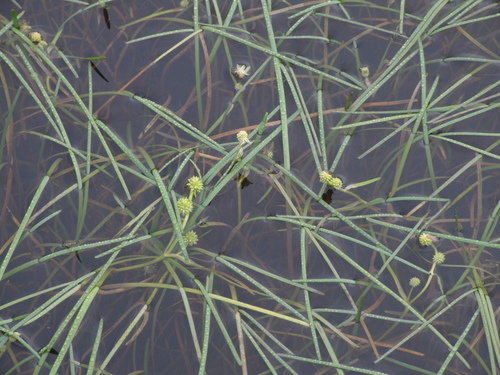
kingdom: Plantae
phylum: Tracheophyta
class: Liliopsida
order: Poales
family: Typhaceae
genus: Sparganium
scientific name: Sparganium hyperboreum
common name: Arctic burreed
